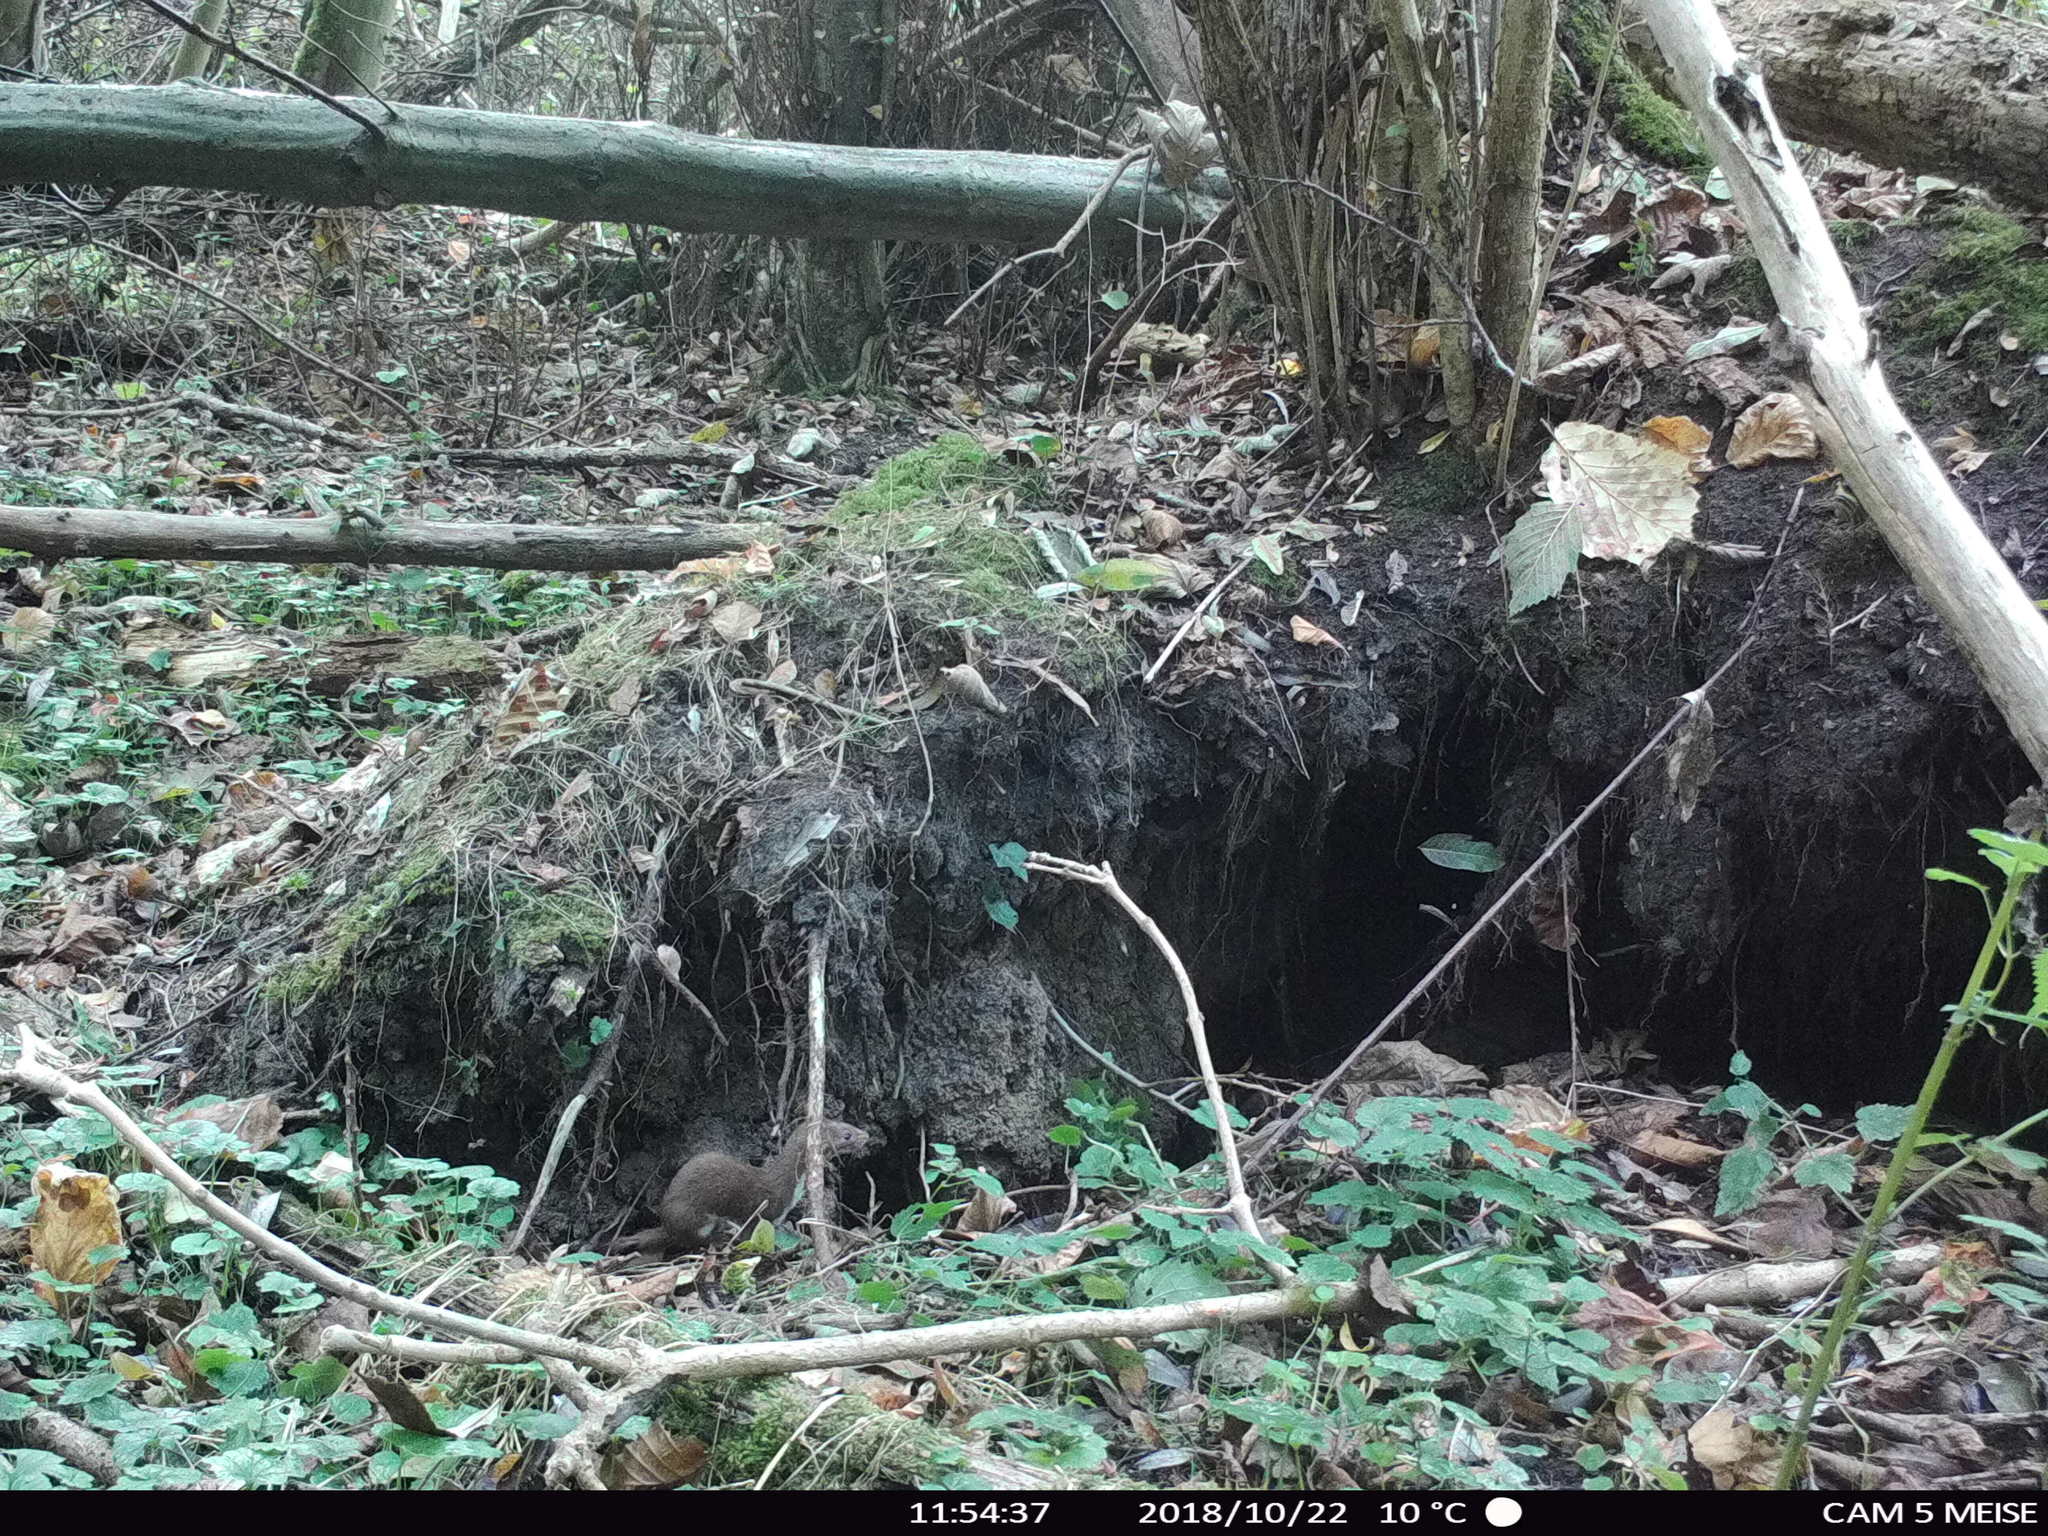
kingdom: Animalia
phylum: Chordata
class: Mammalia
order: Carnivora
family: Mustelidae
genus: Mustela
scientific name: Mustela nivalis
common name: Least weasel
